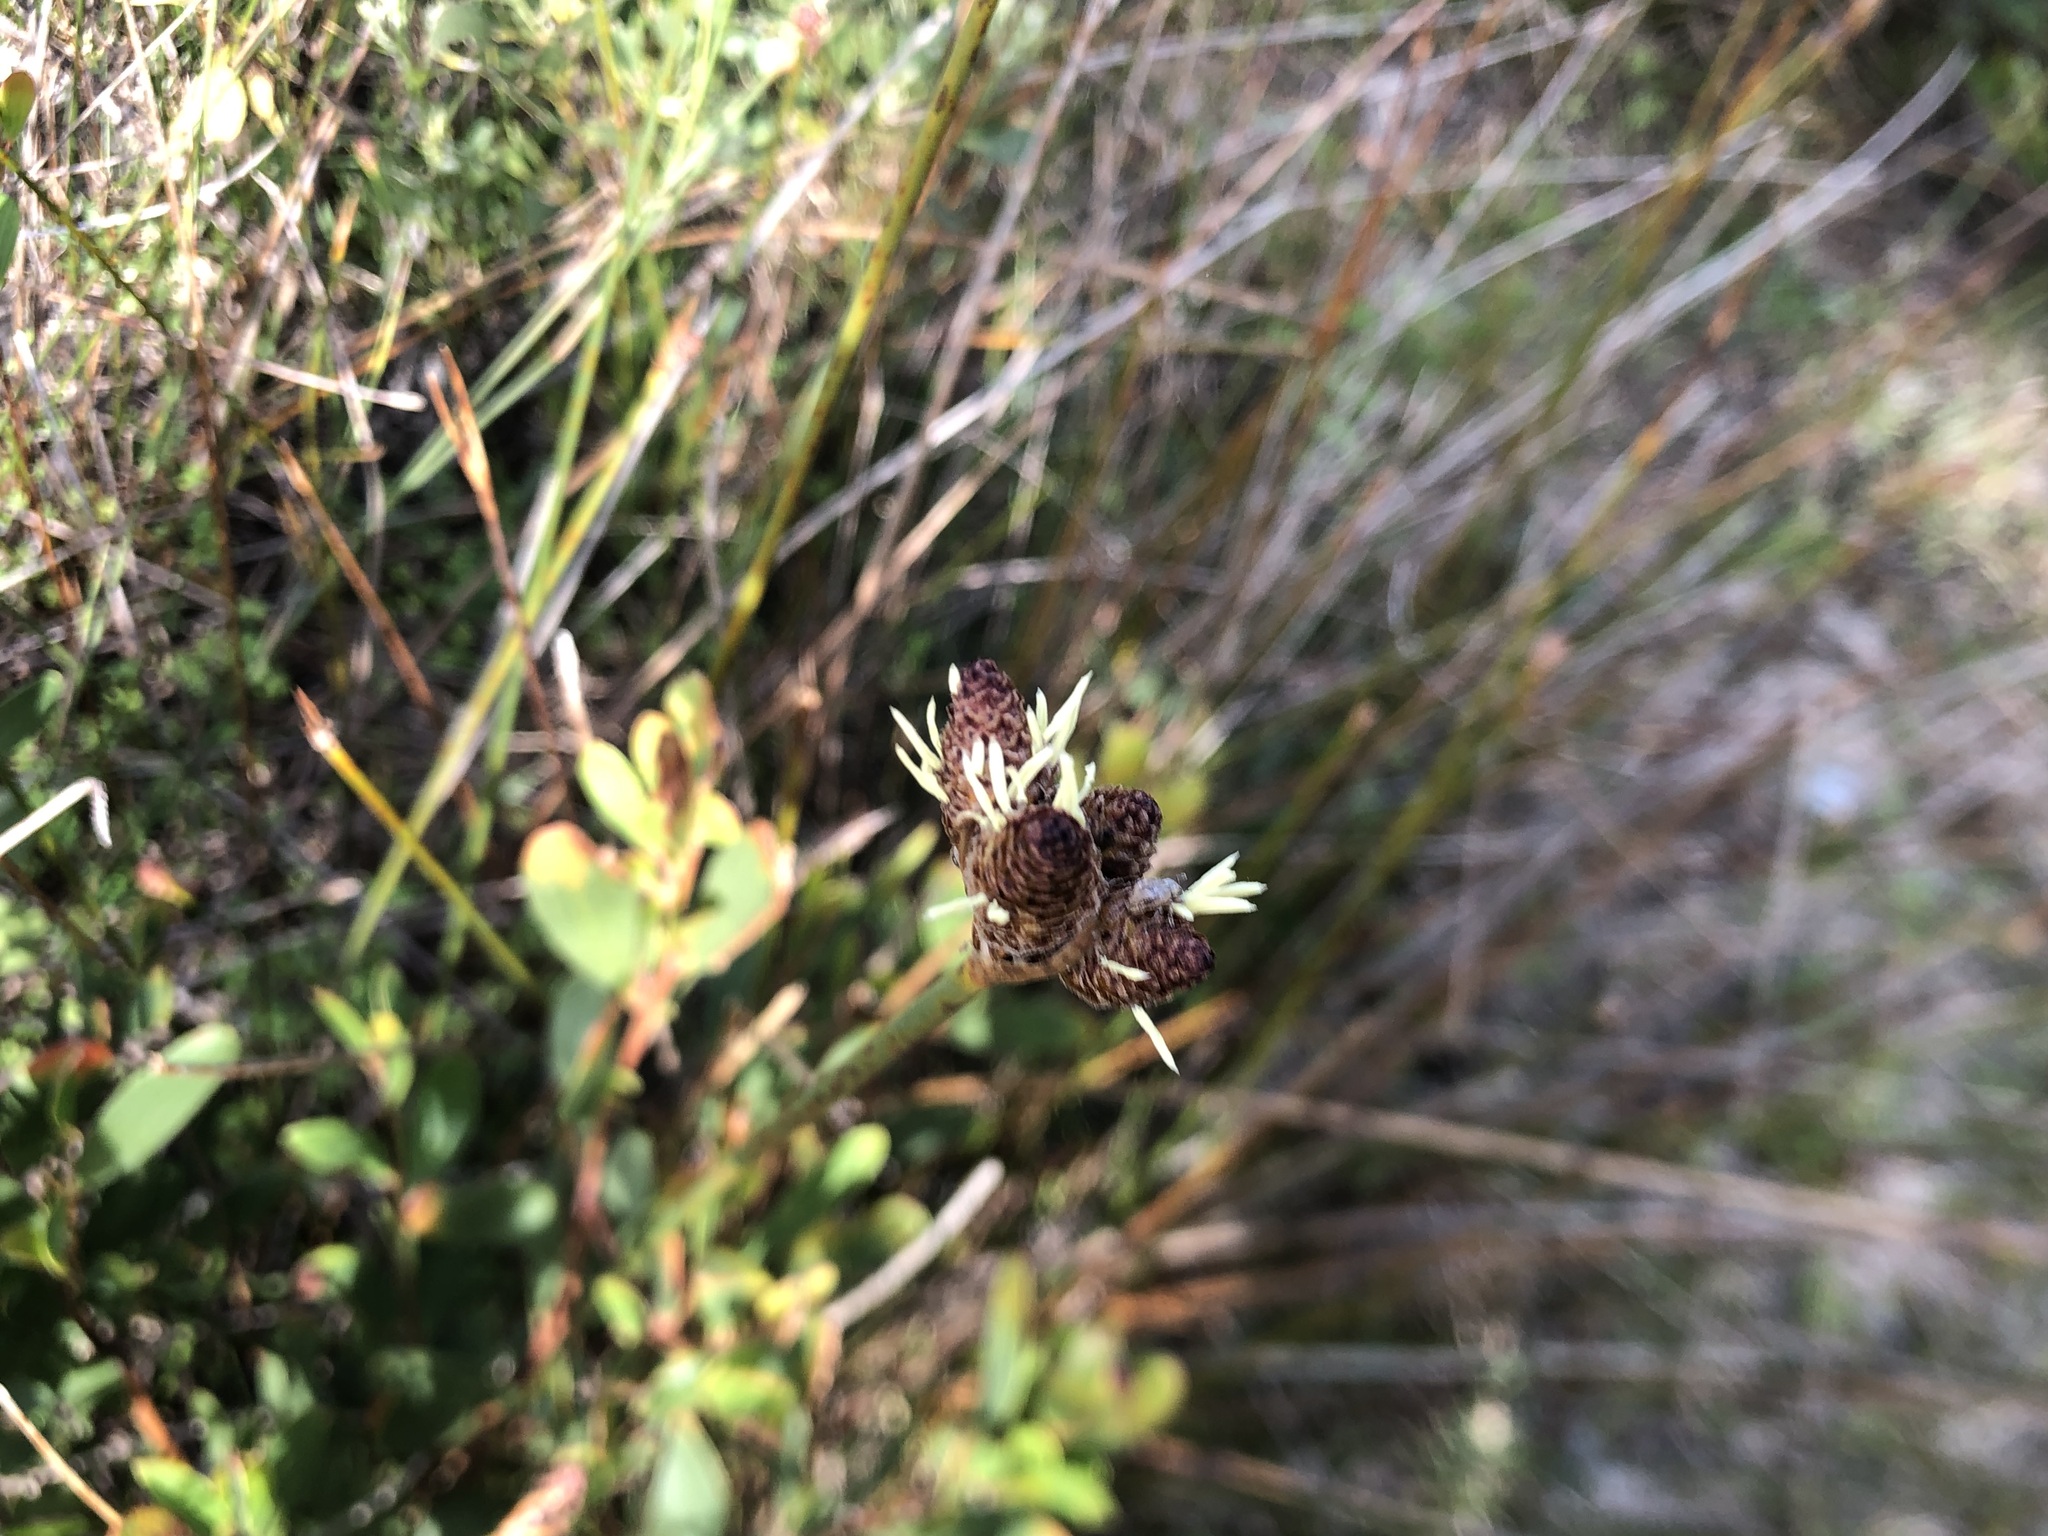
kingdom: Plantae
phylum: Tracheophyta
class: Liliopsida
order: Poales
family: Cyperaceae
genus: Hellmuthia
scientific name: Hellmuthia membranacea
